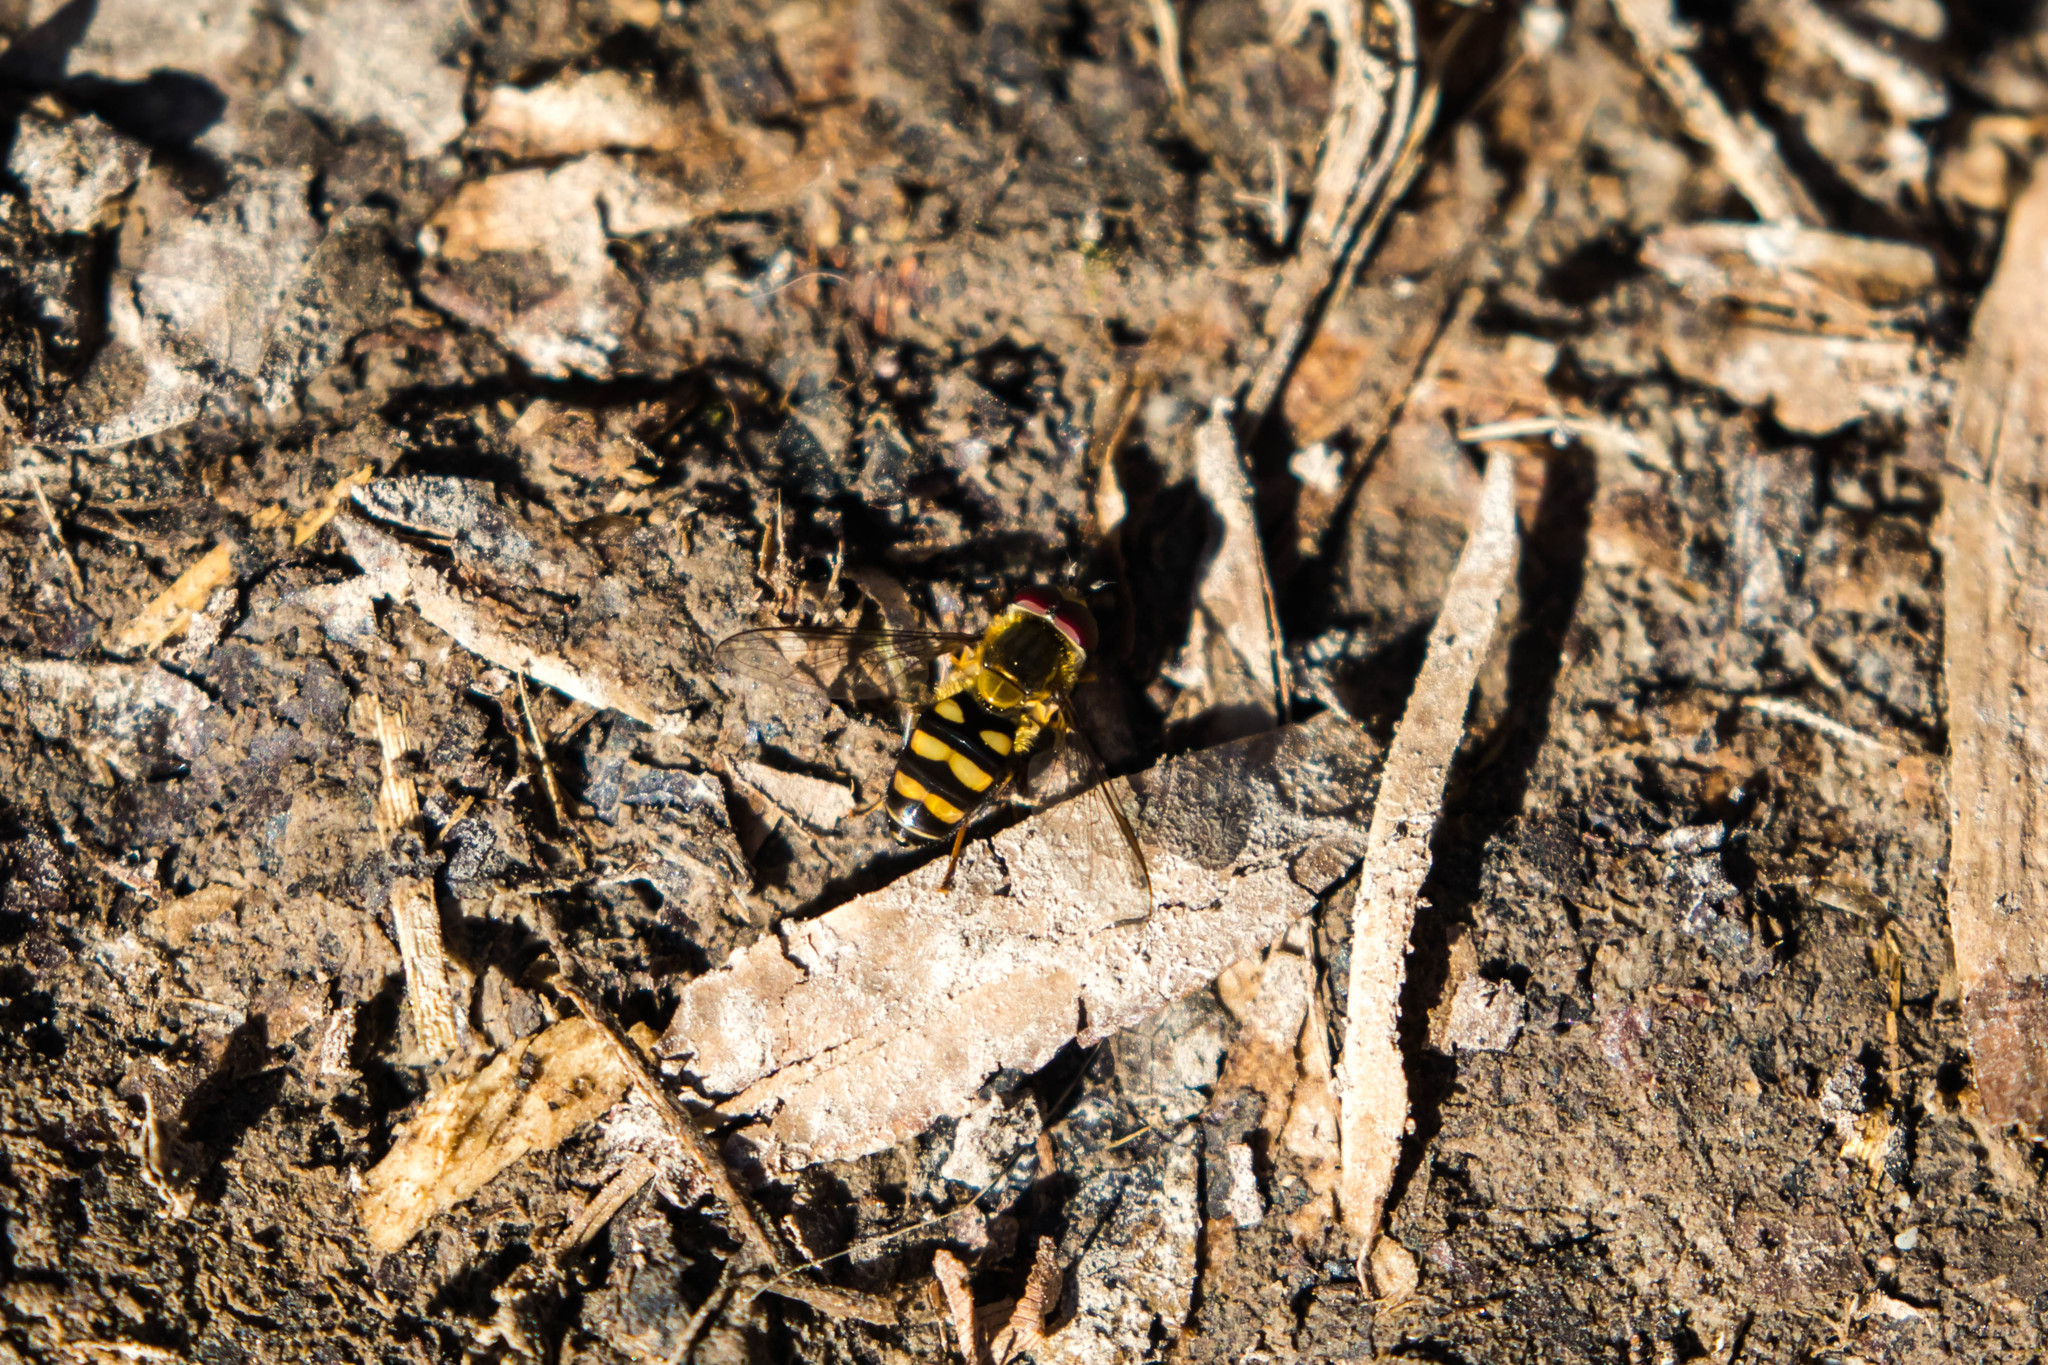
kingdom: Animalia
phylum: Arthropoda
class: Insecta
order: Diptera
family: Syrphidae
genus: Eupeodes
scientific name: Eupeodes
